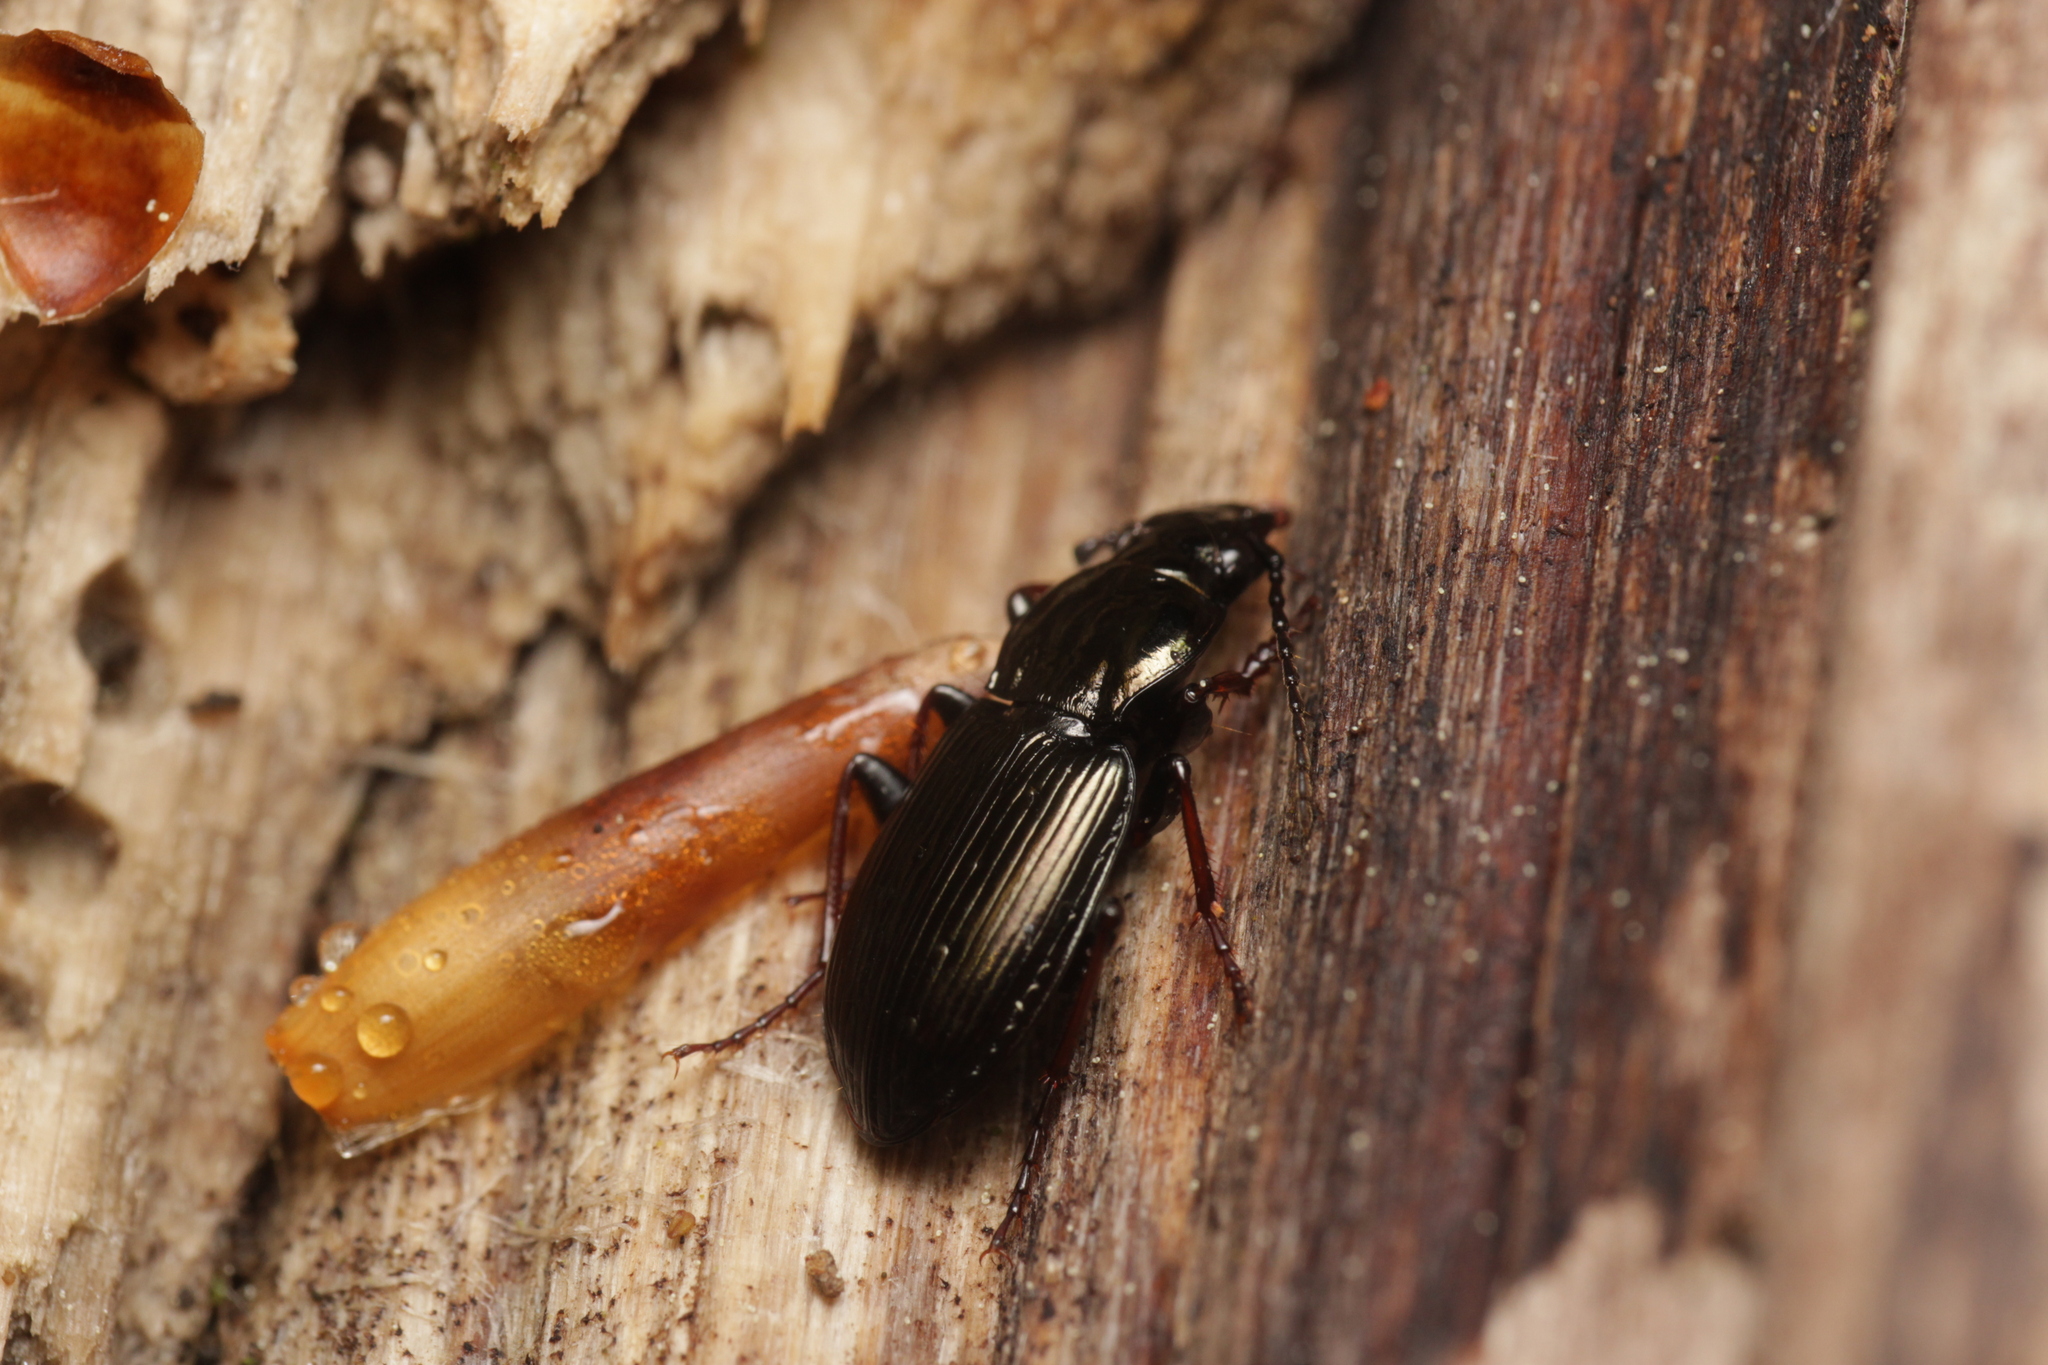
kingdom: Animalia
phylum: Arthropoda
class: Insecta
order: Coleoptera
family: Carabidae
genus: Pterostichus
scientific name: Pterostichus oblongopunctatus
